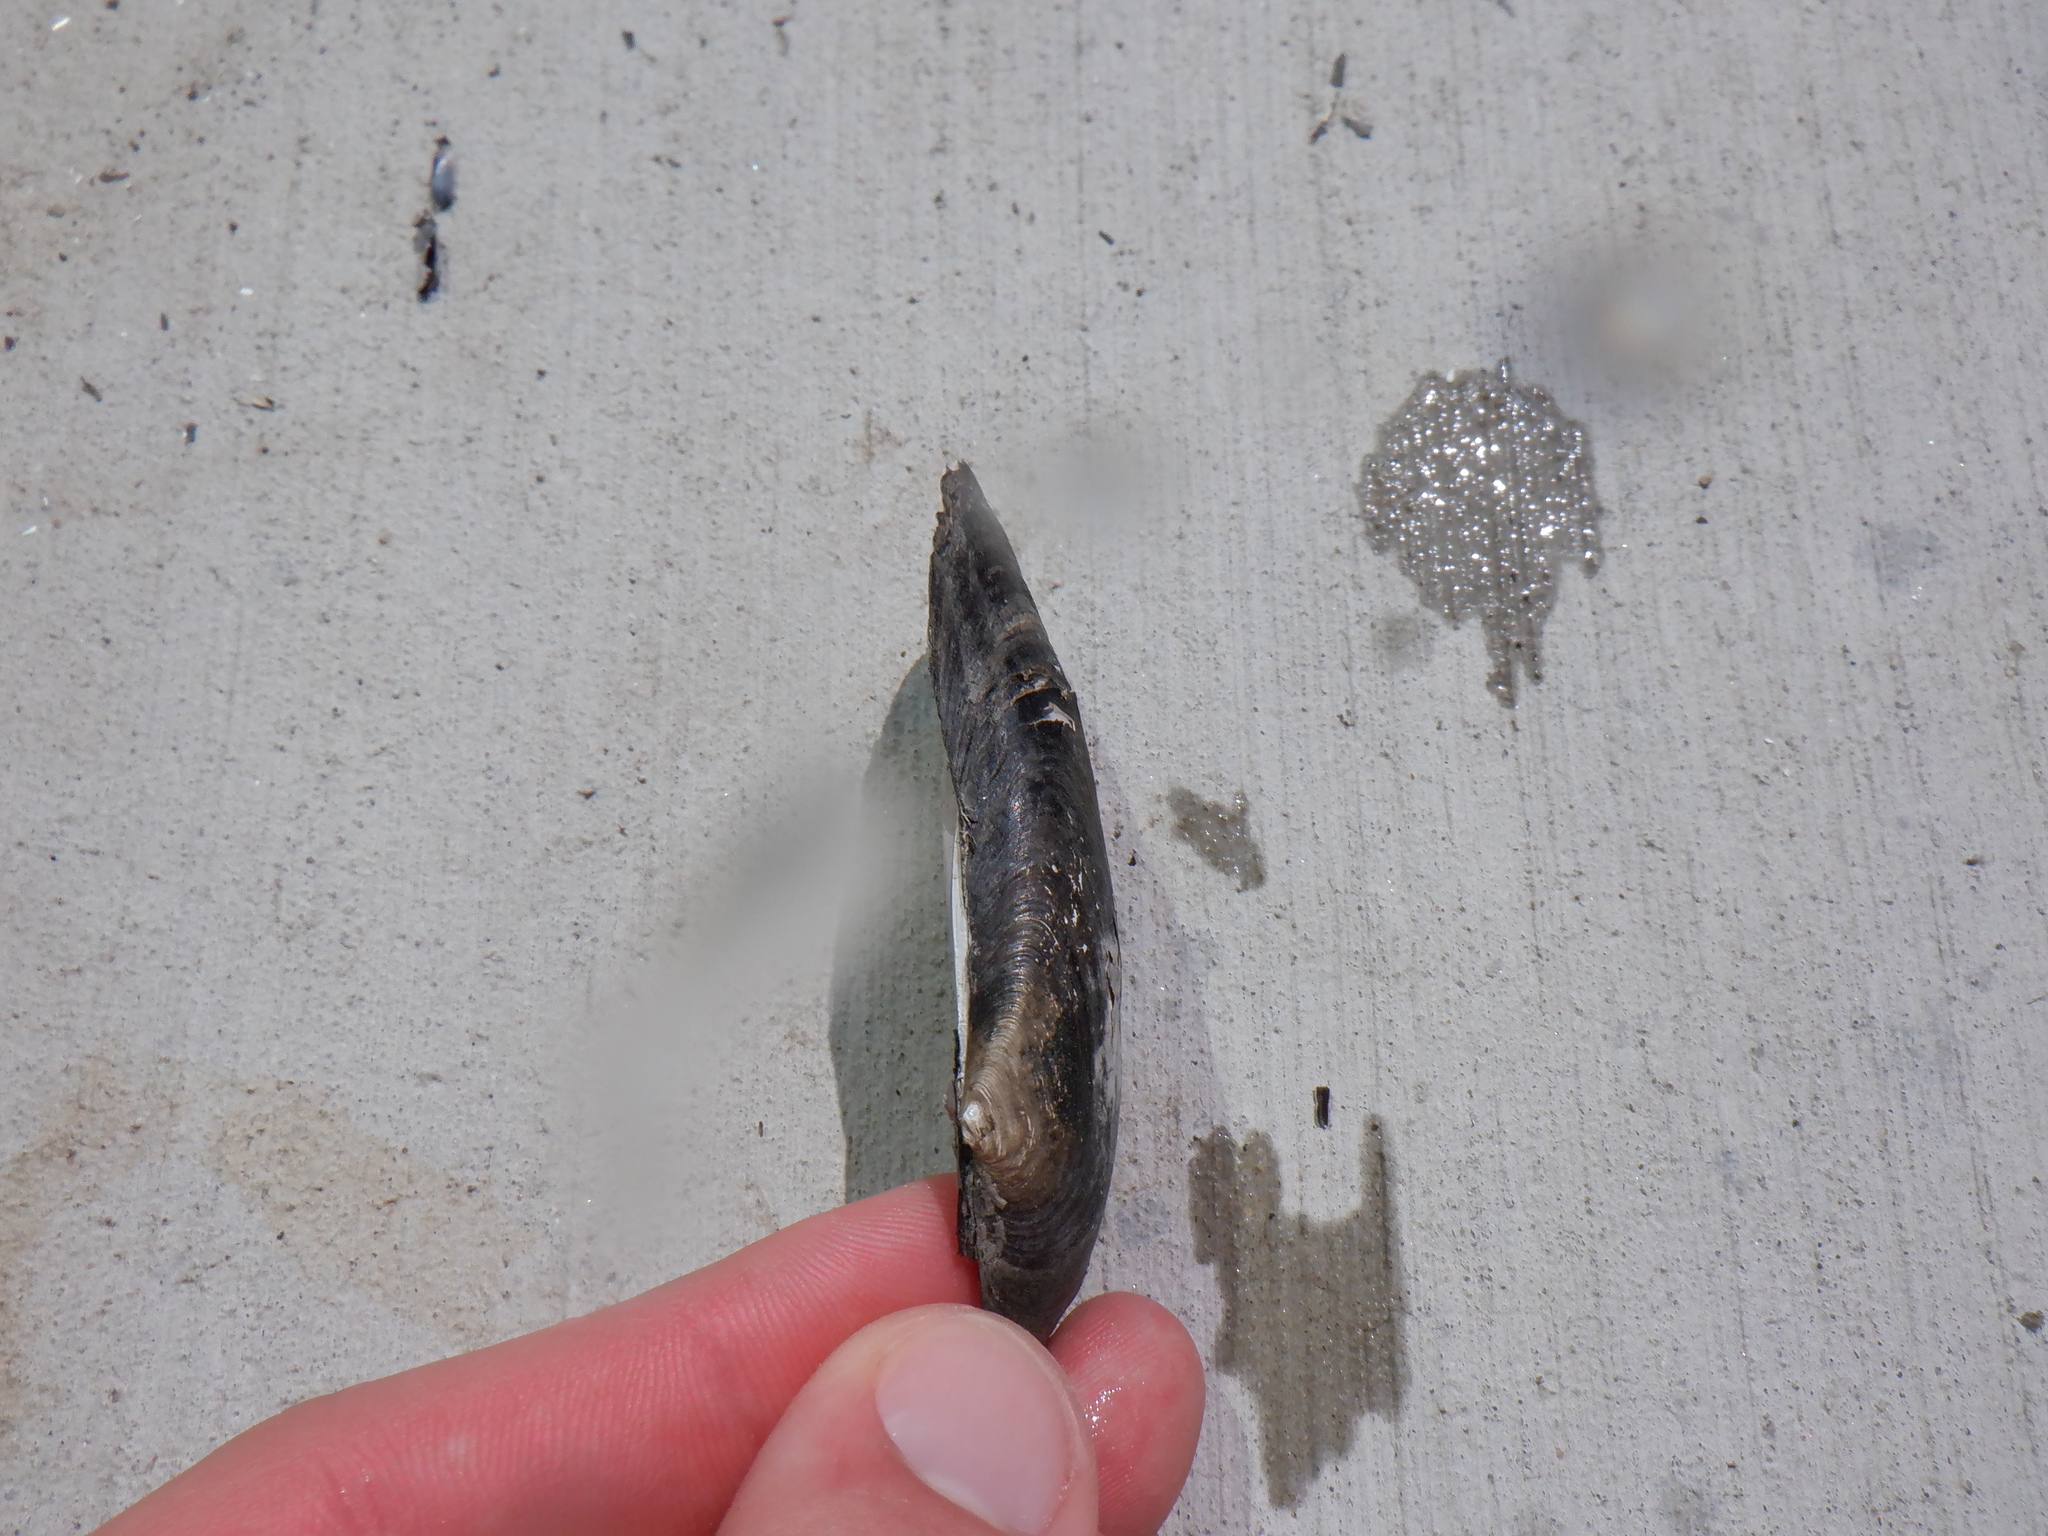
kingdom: Animalia
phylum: Mollusca
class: Bivalvia
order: Unionida
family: Unionidae
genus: Eurynia
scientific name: Eurynia dilatata
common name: Spike
